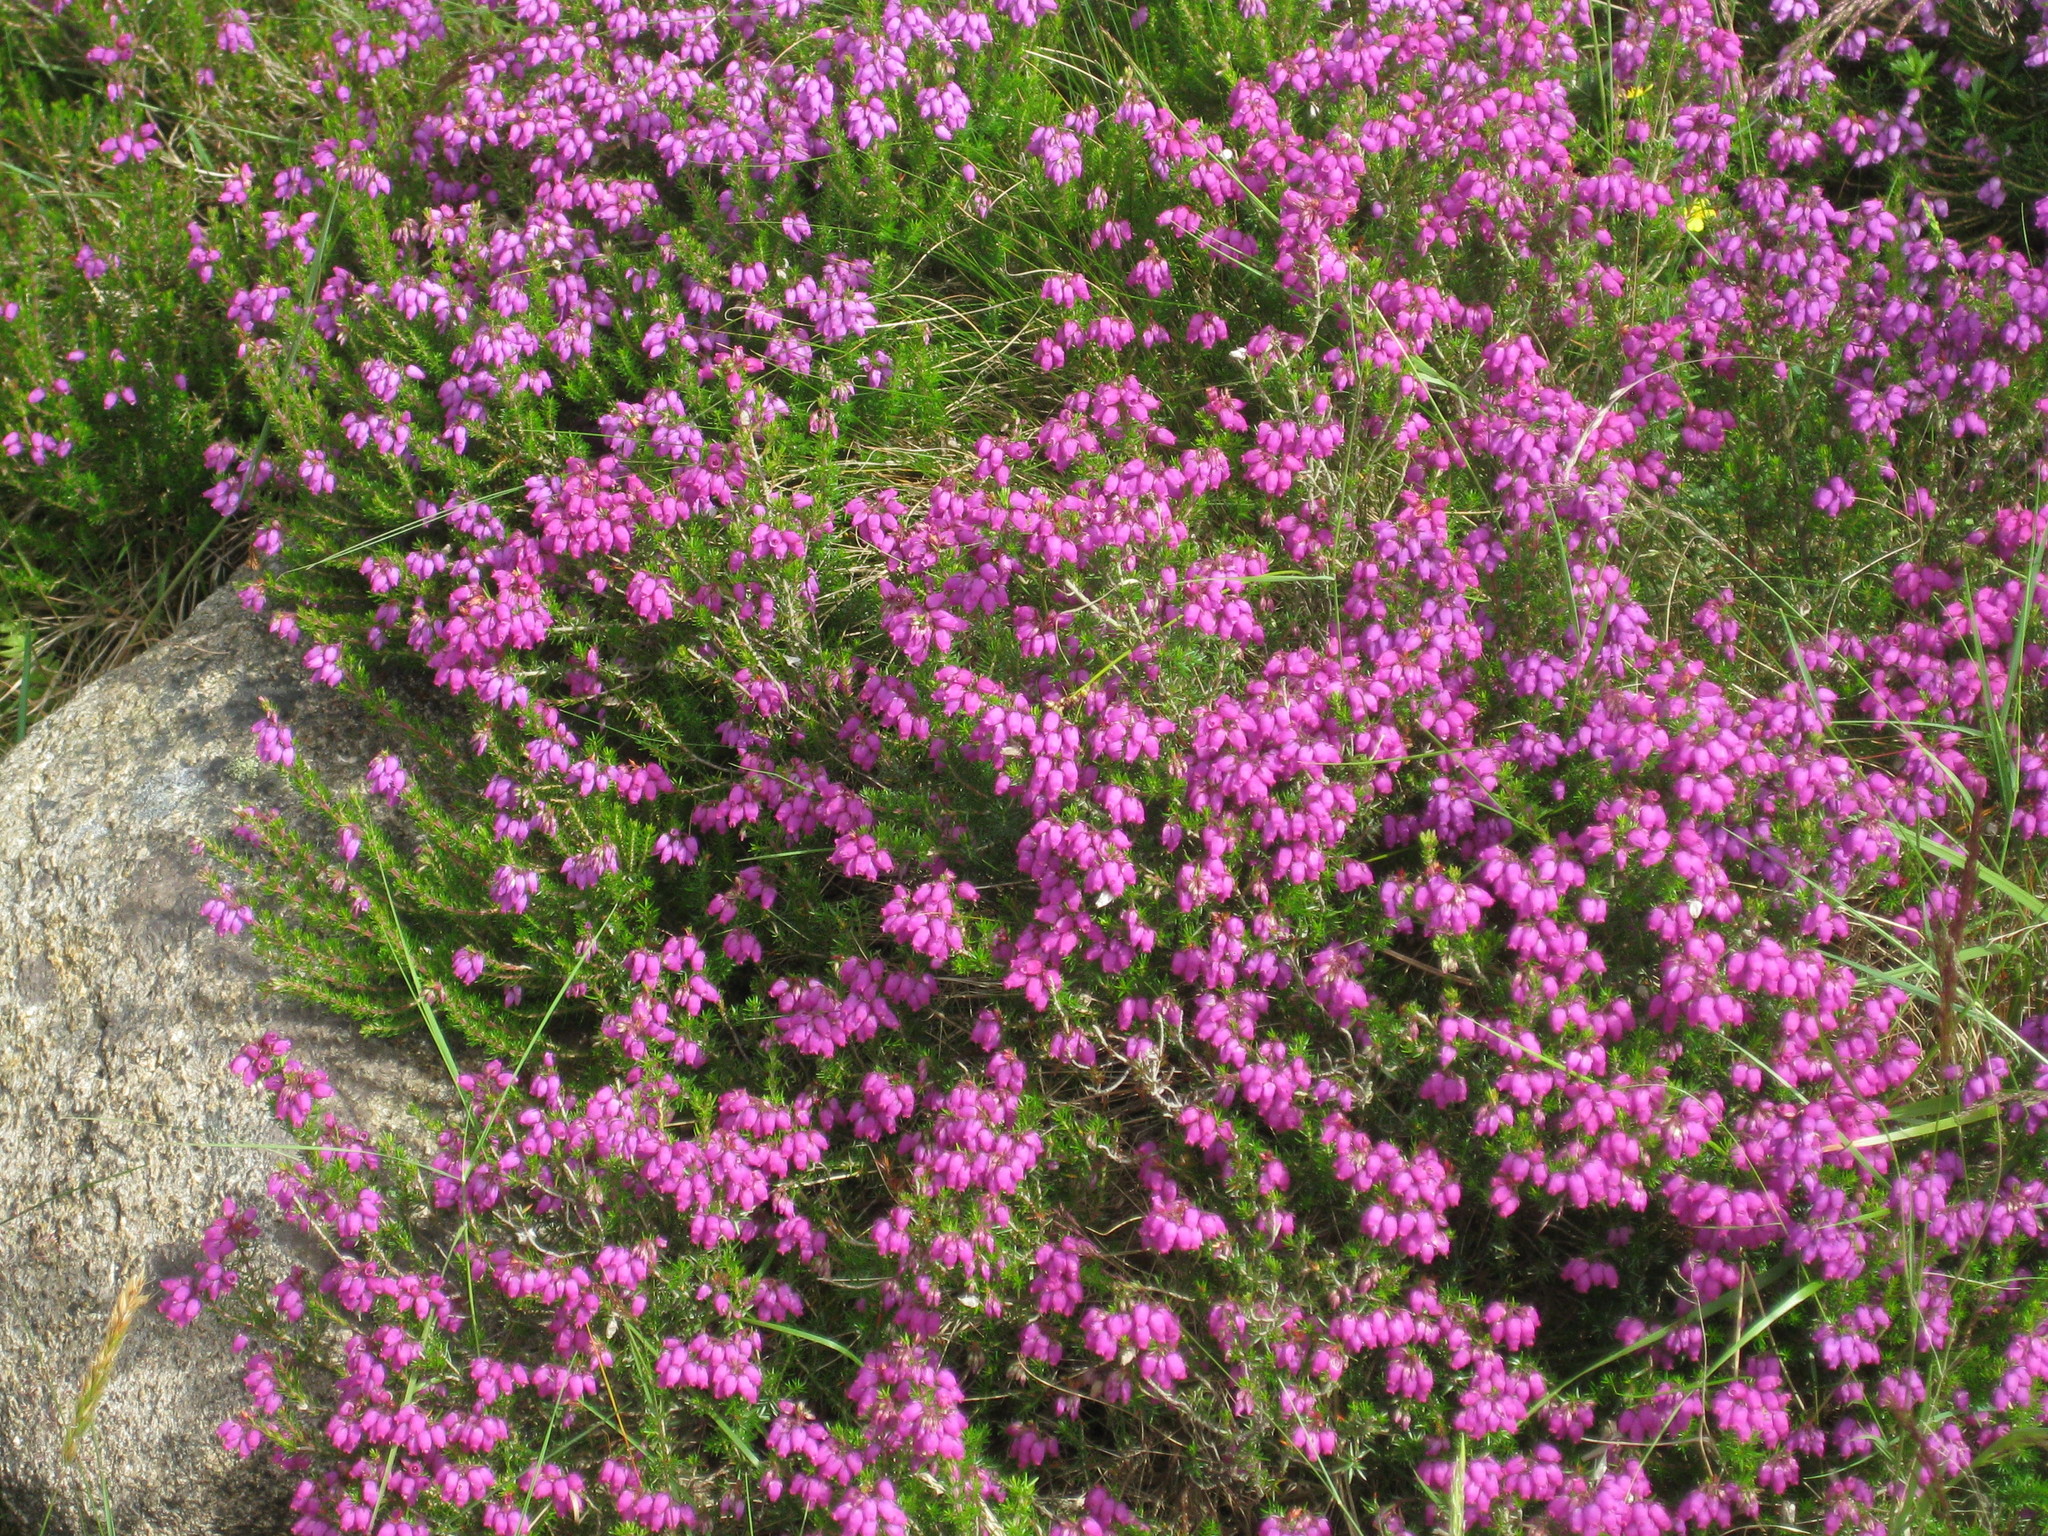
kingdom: Plantae
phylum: Tracheophyta
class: Magnoliopsida
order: Ericales
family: Ericaceae
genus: Erica
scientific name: Erica cinerea
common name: Bell heather
